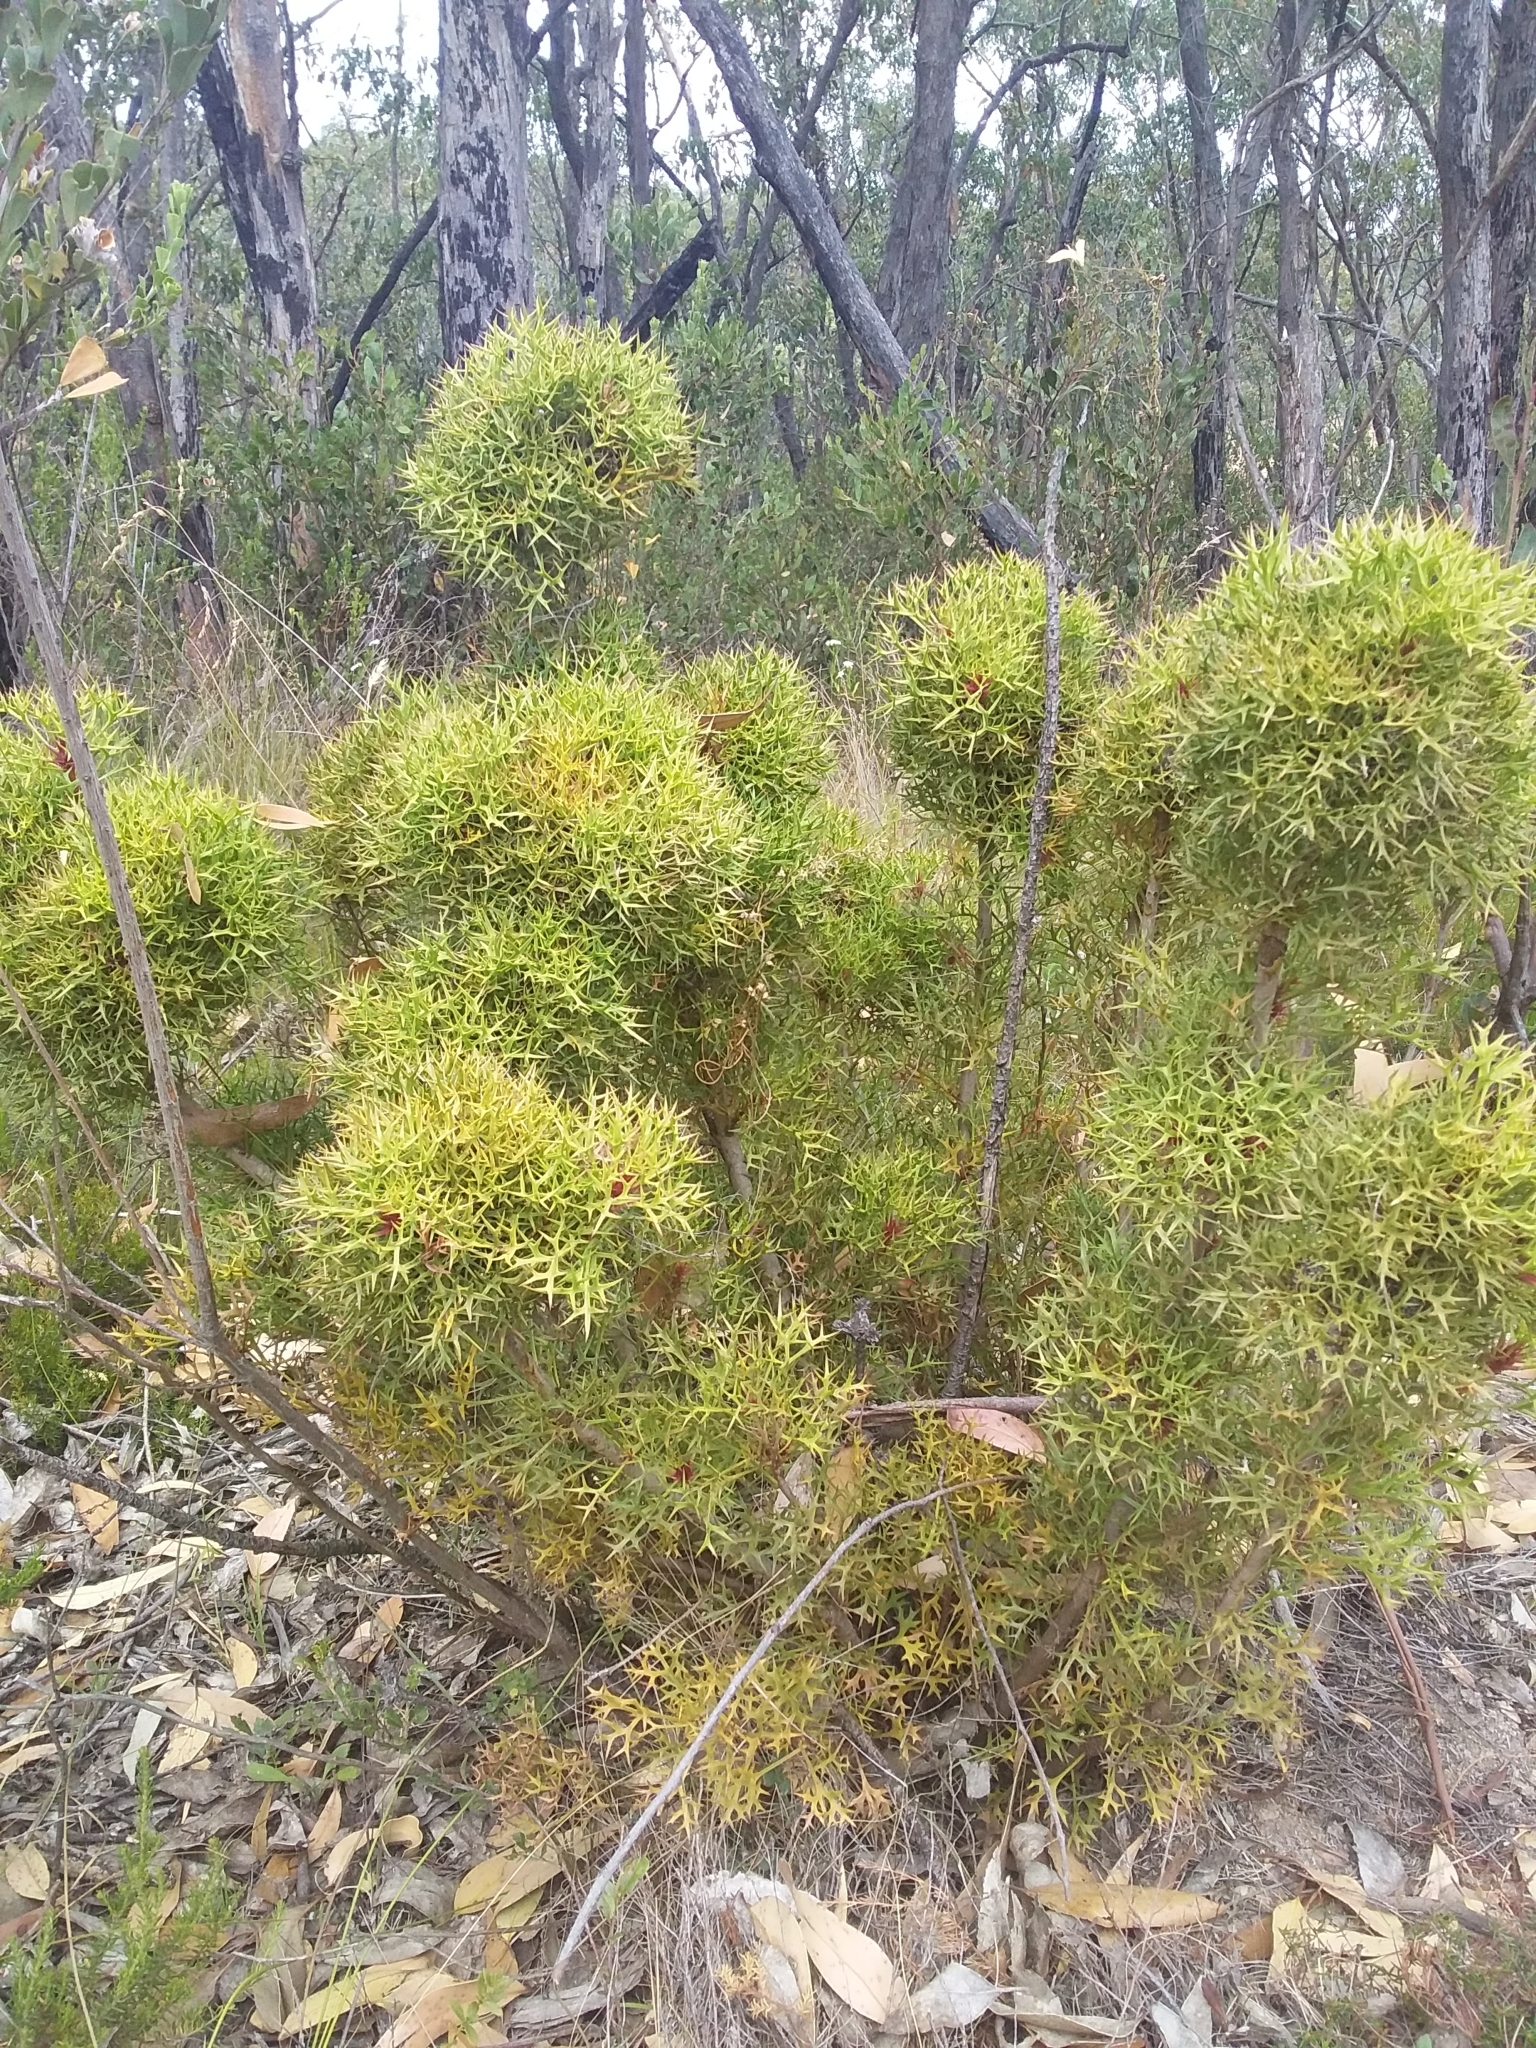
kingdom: Plantae
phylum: Tracheophyta
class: Magnoliopsida
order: Proteales
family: Proteaceae
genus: Isopogon
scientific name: Isopogon ceratophyllus
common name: Horny cone-bush
